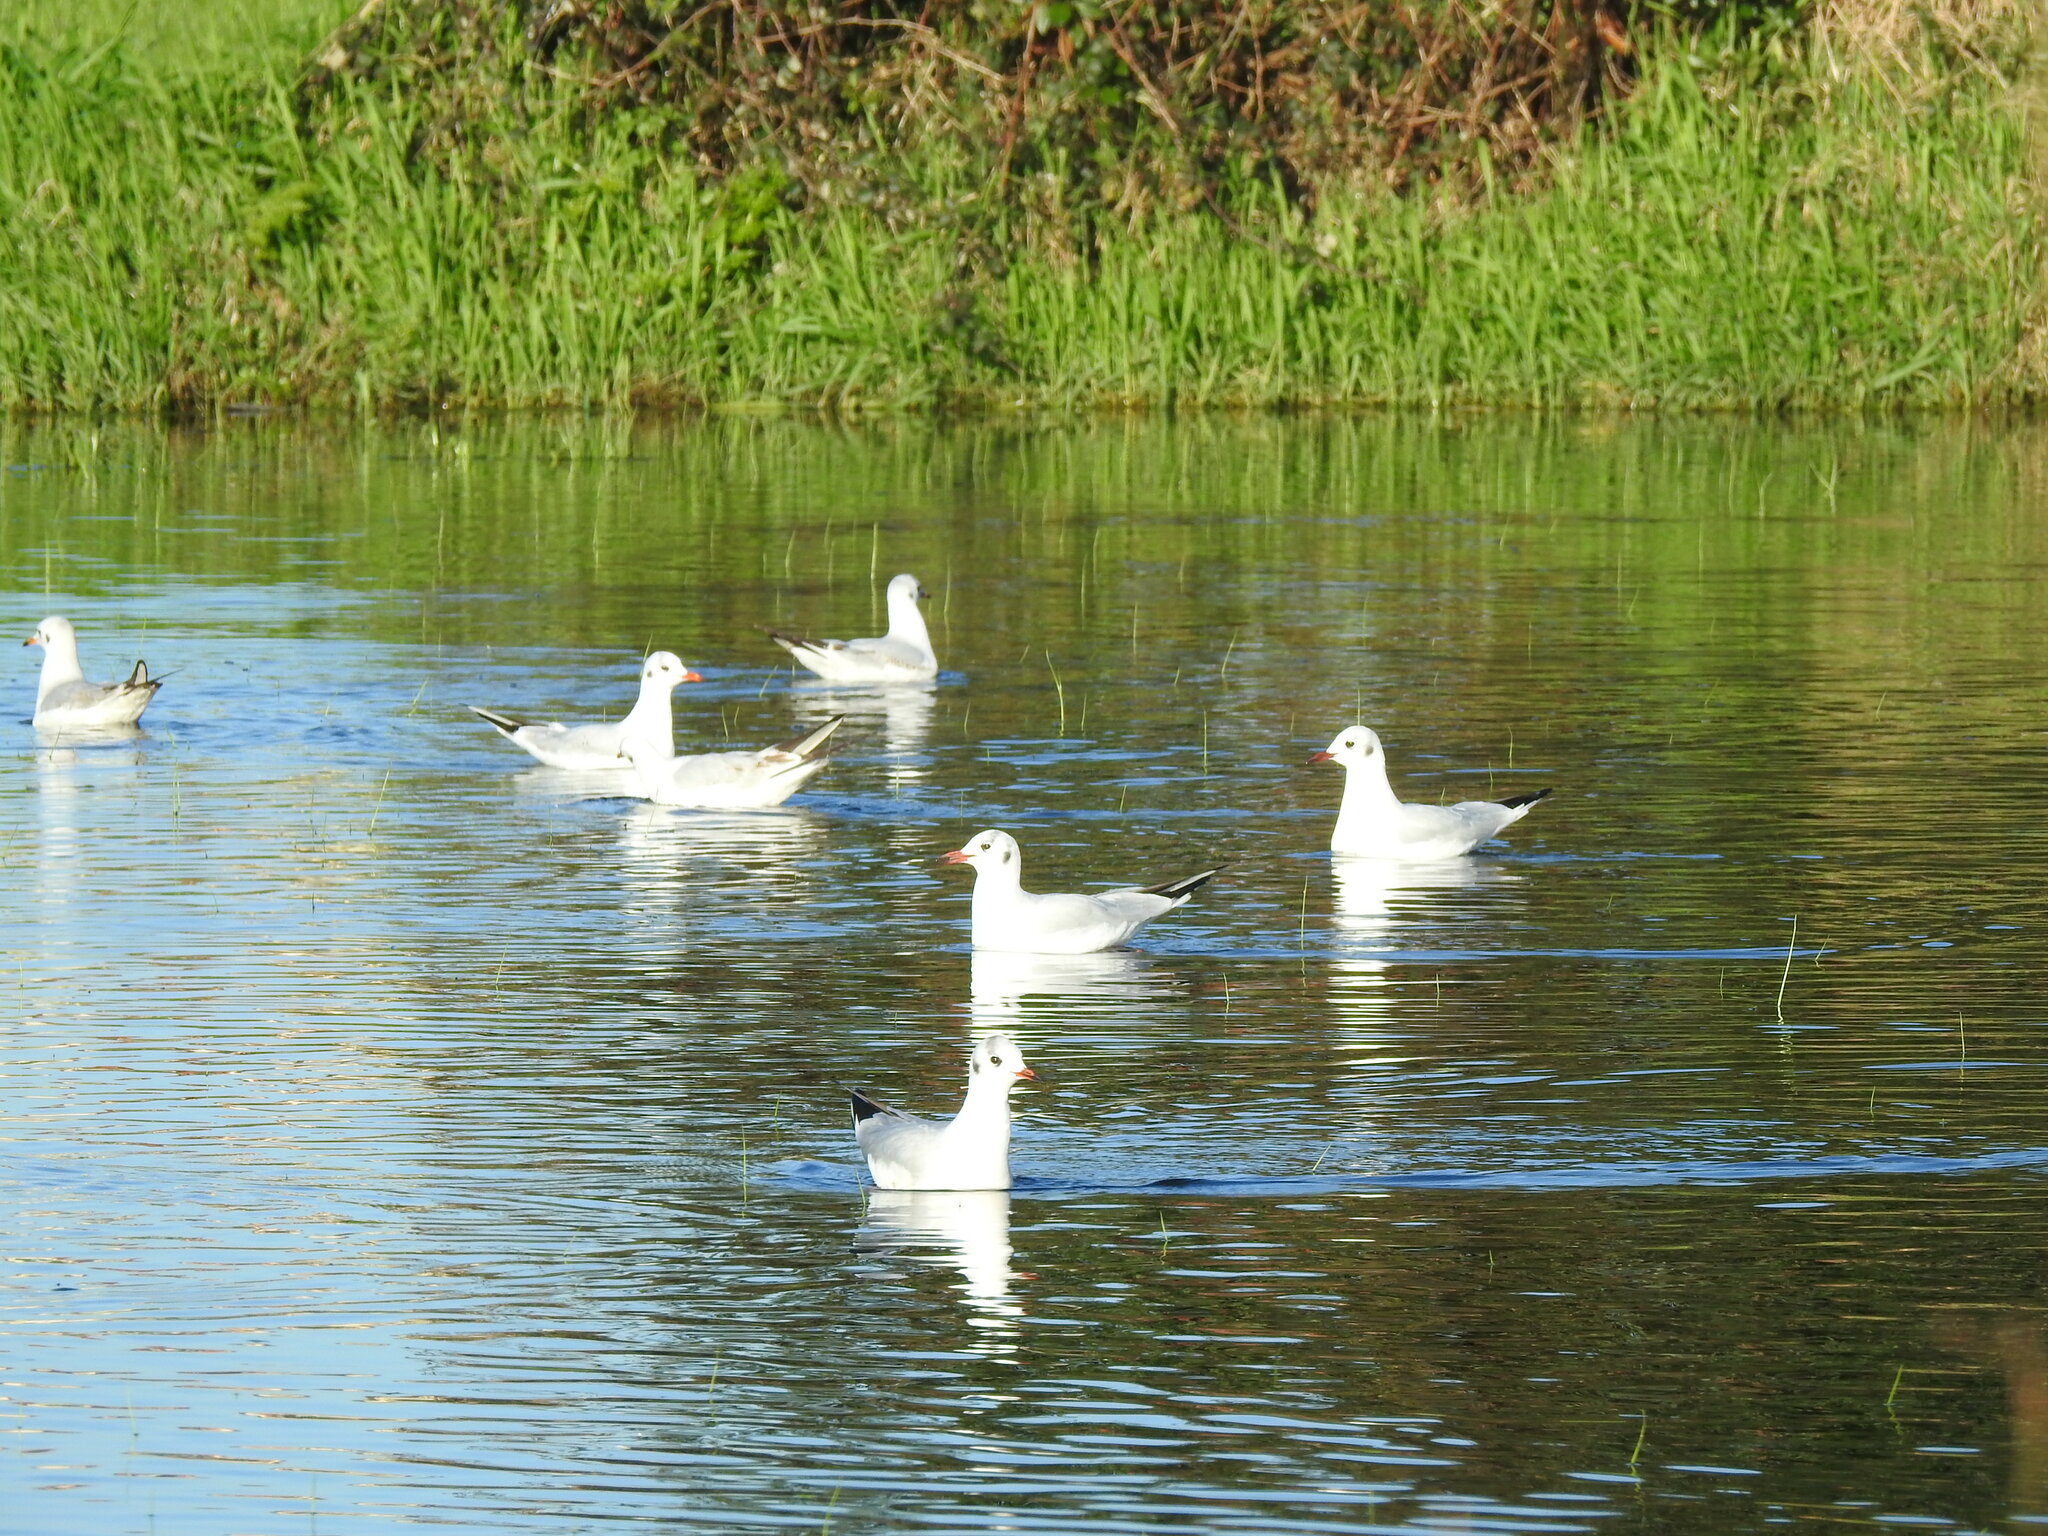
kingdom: Animalia
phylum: Chordata
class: Aves
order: Charadriiformes
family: Laridae
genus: Chroicocephalus
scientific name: Chroicocephalus ridibundus
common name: Black-headed gull
